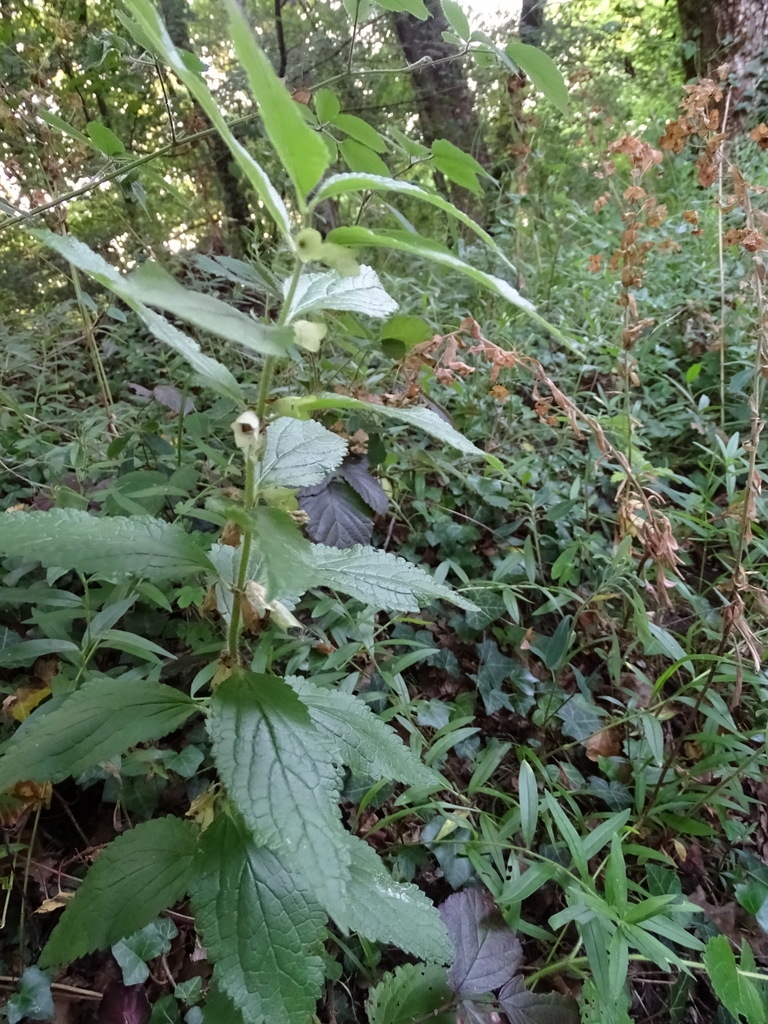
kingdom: Plantae
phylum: Tracheophyta
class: Magnoliopsida
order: Lamiales
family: Lamiaceae
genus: Melittis
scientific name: Melittis melissophyllum
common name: Bastard balm
